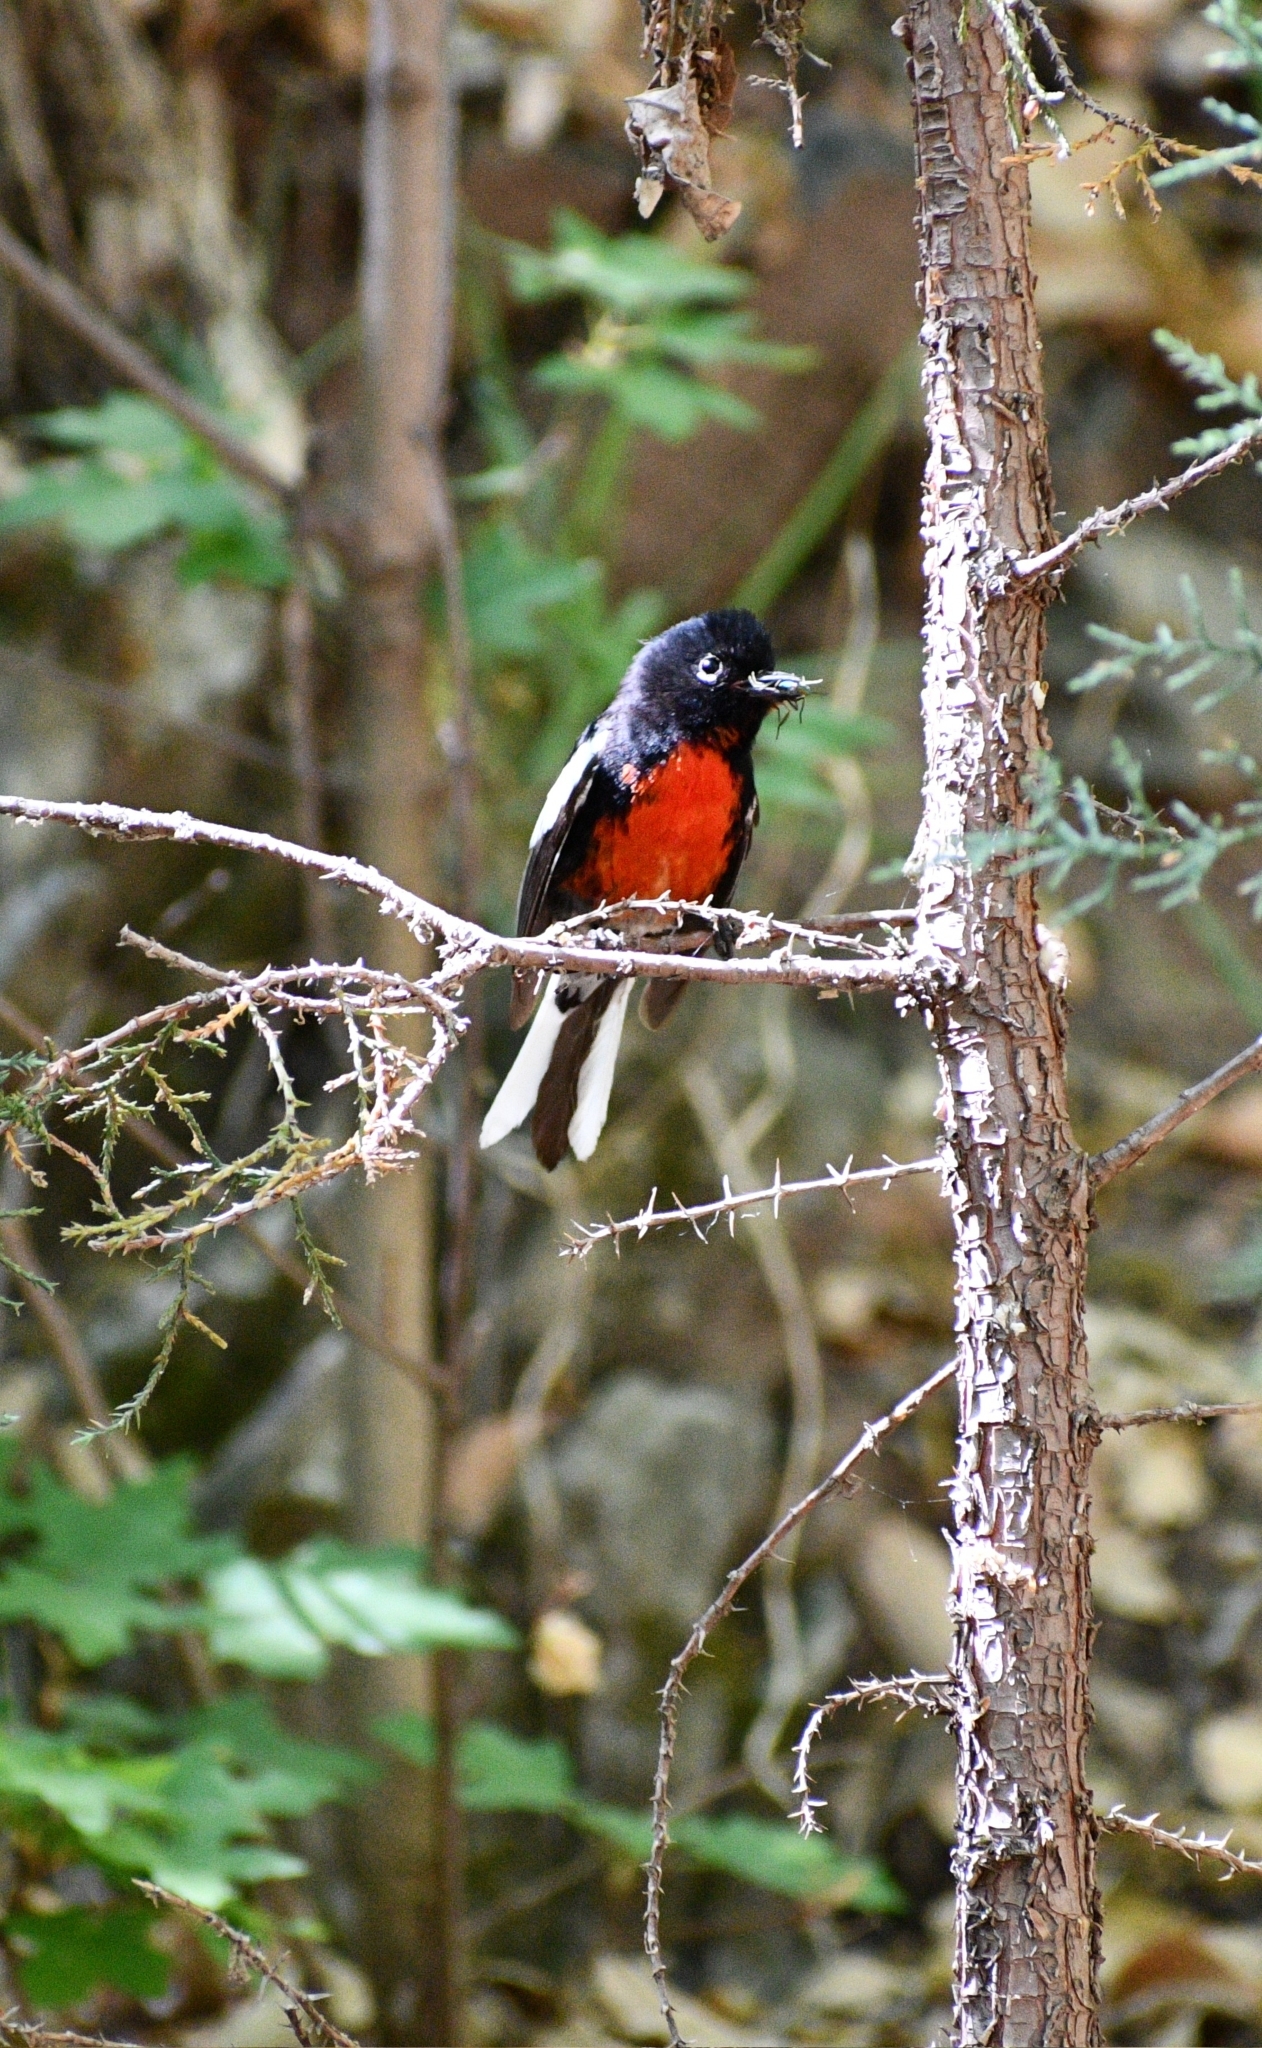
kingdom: Animalia
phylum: Chordata
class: Aves
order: Passeriformes
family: Parulidae
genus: Myioborus
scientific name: Myioborus pictus
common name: Painted whitestart
